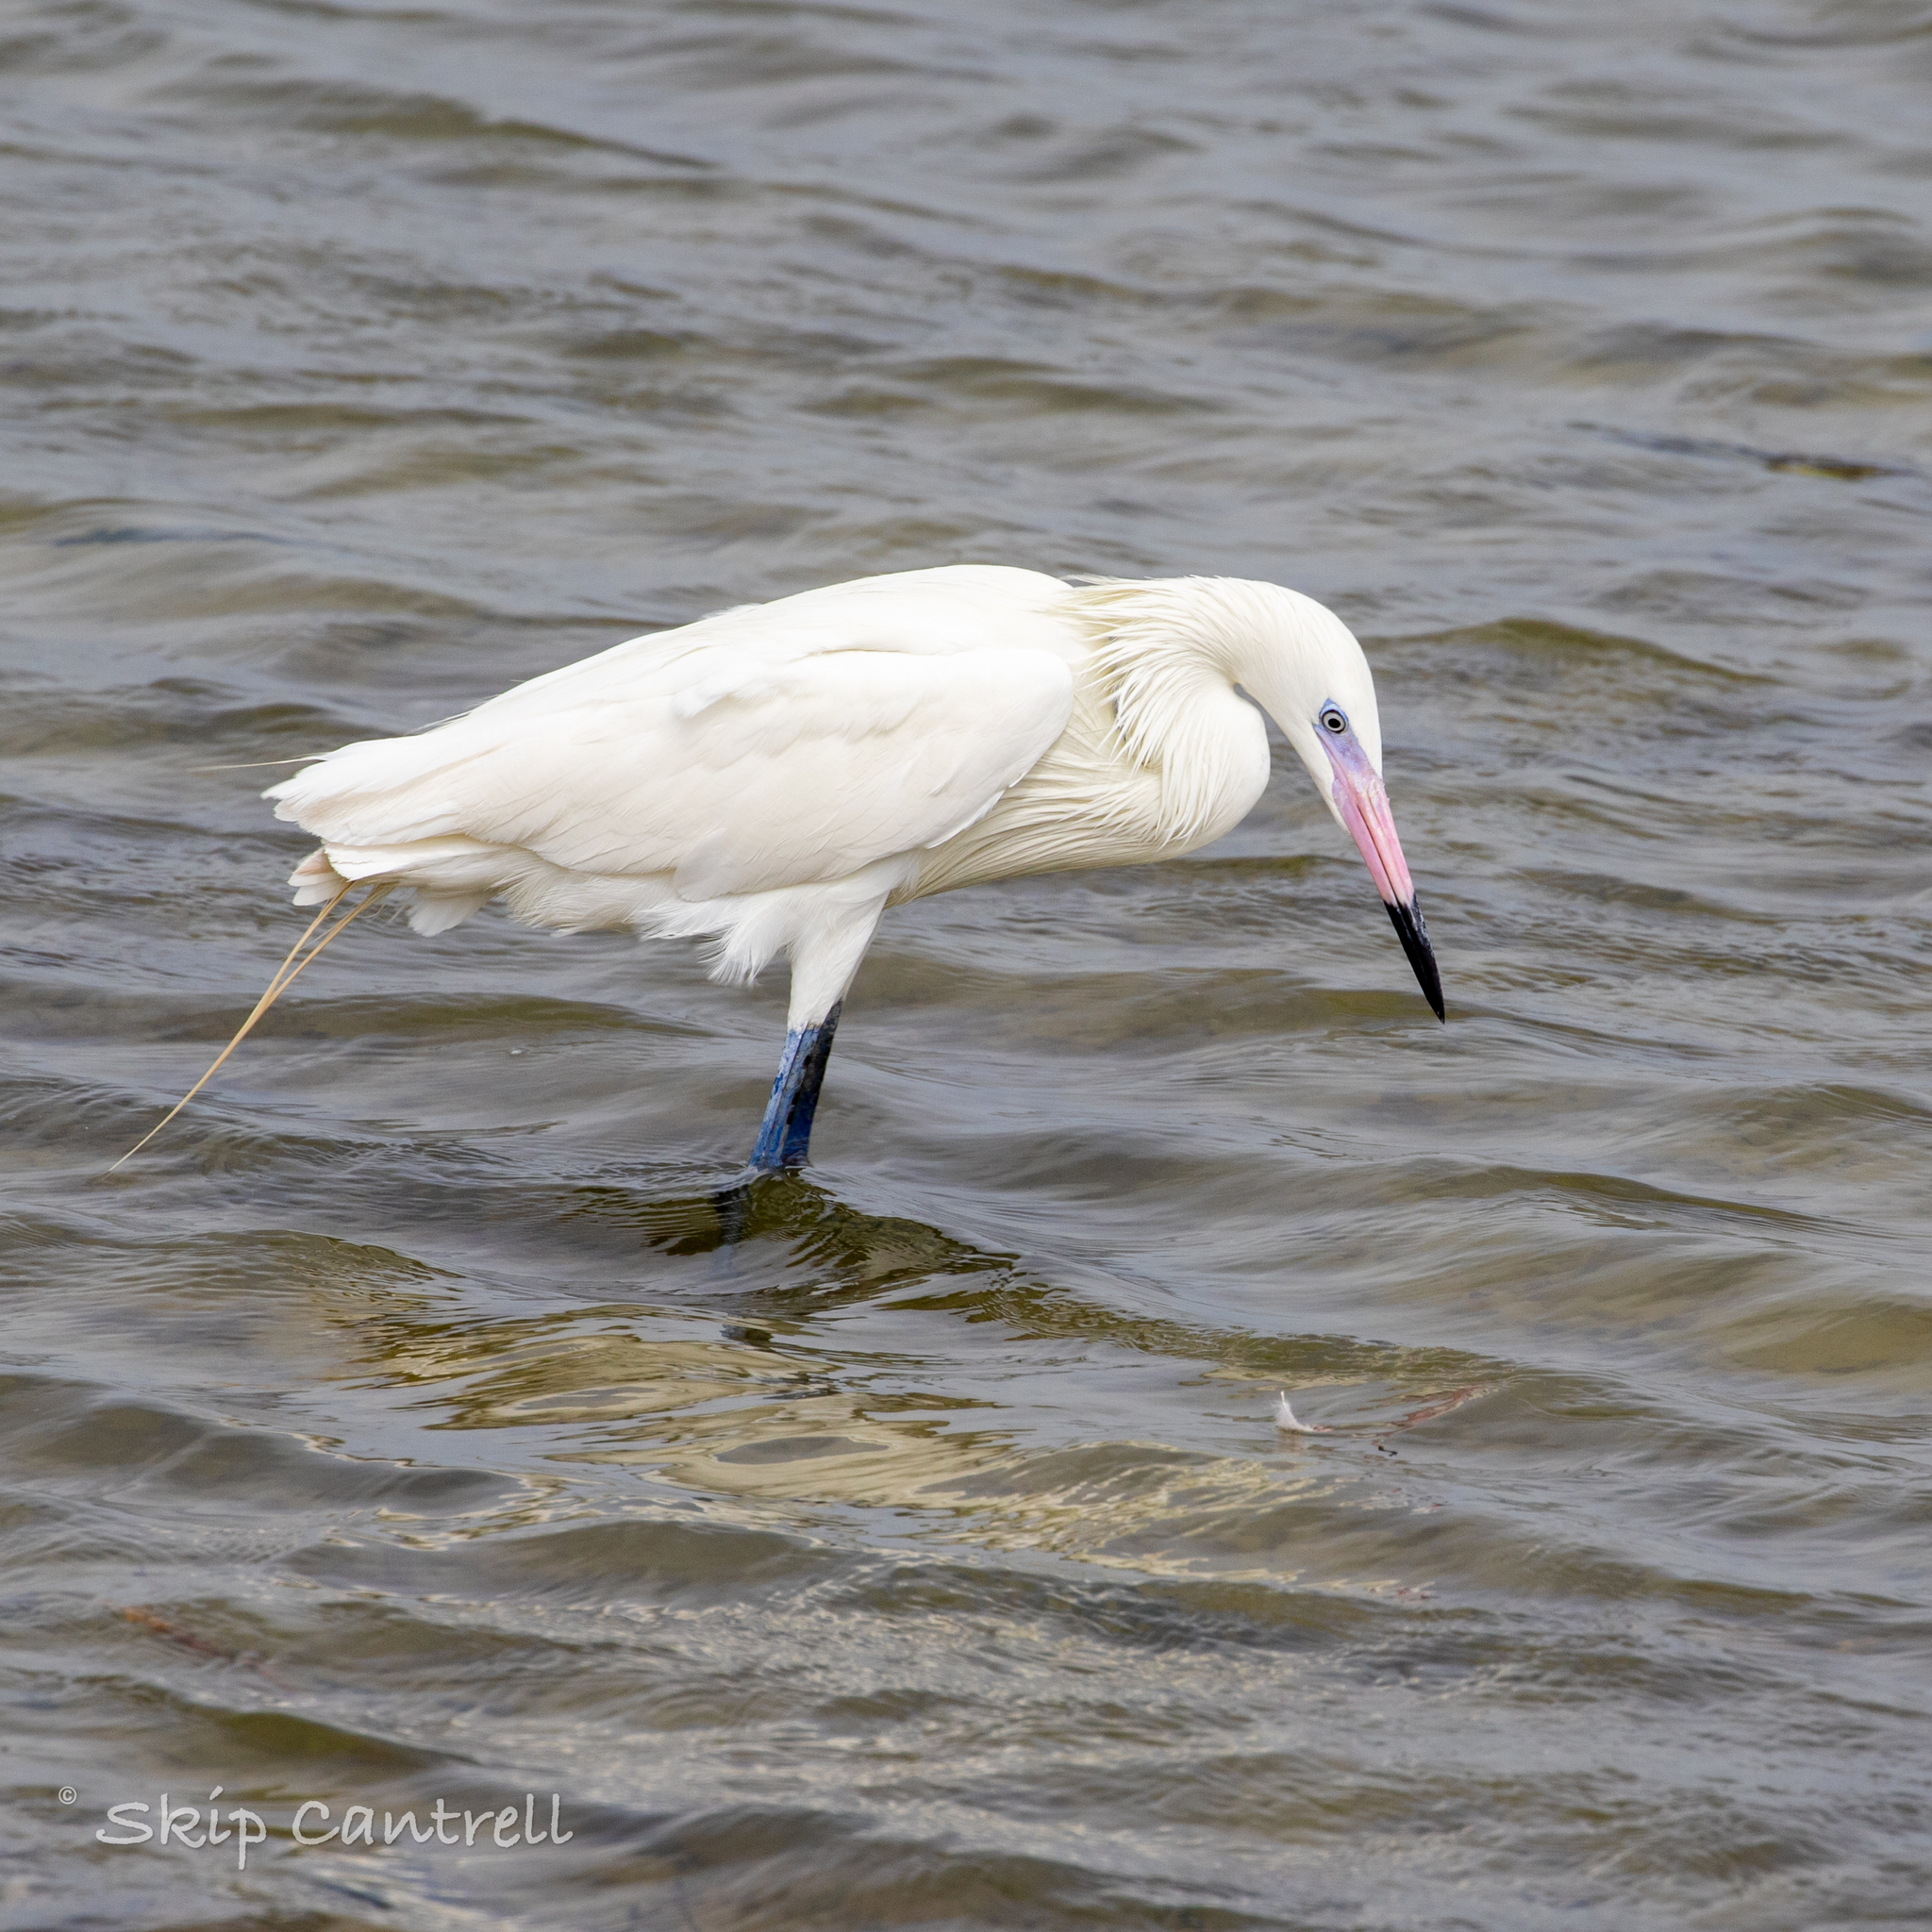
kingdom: Animalia
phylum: Chordata
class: Aves
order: Pelecaniformes
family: Ardeidae
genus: Egretta
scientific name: Egretta rufescens
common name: Reddish egret
